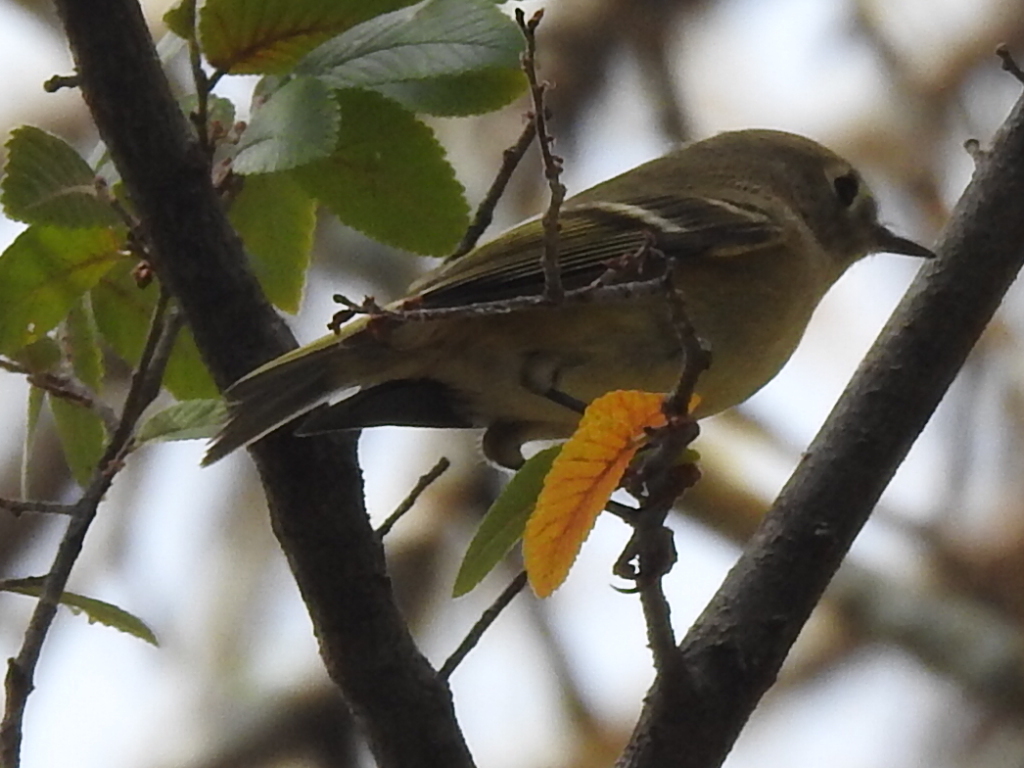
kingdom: Animalia
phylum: Chordata
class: Aves
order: Passeriformes
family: Regulidae
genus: Regulus
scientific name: Regulus calendula
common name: Ruby-crowned kinglet
